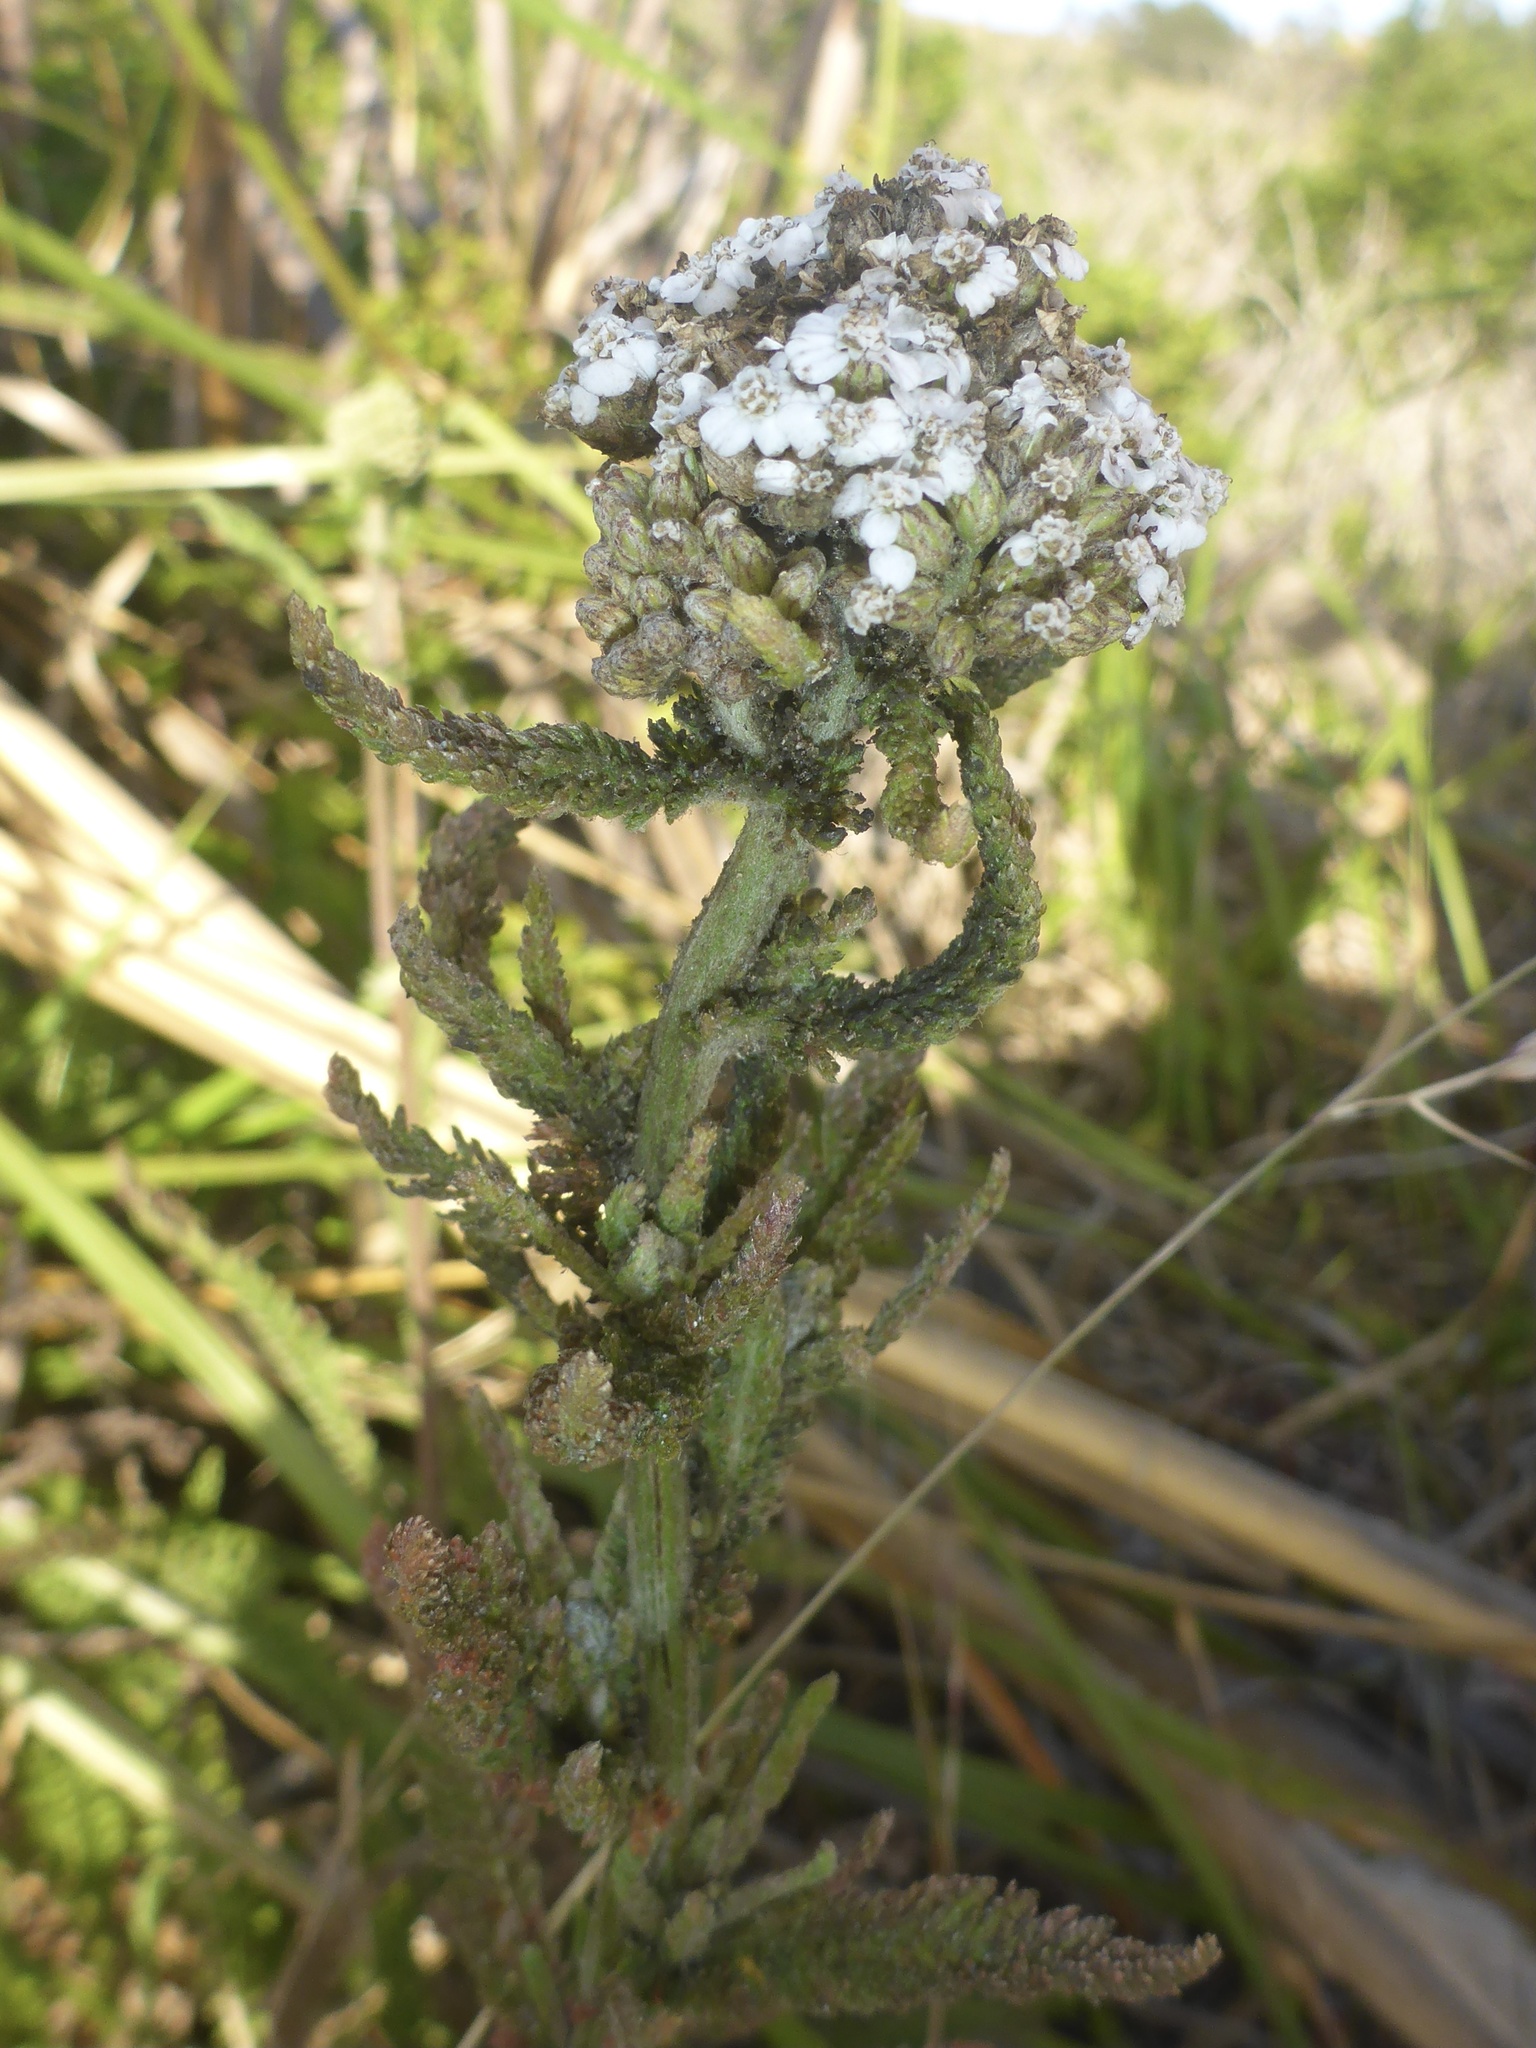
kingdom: Plantae
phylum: Tracheophyta
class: Magnoliopsida
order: Asterales
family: Asteraceae
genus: Achillea
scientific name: Achillea millefolium
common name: Yarrow
